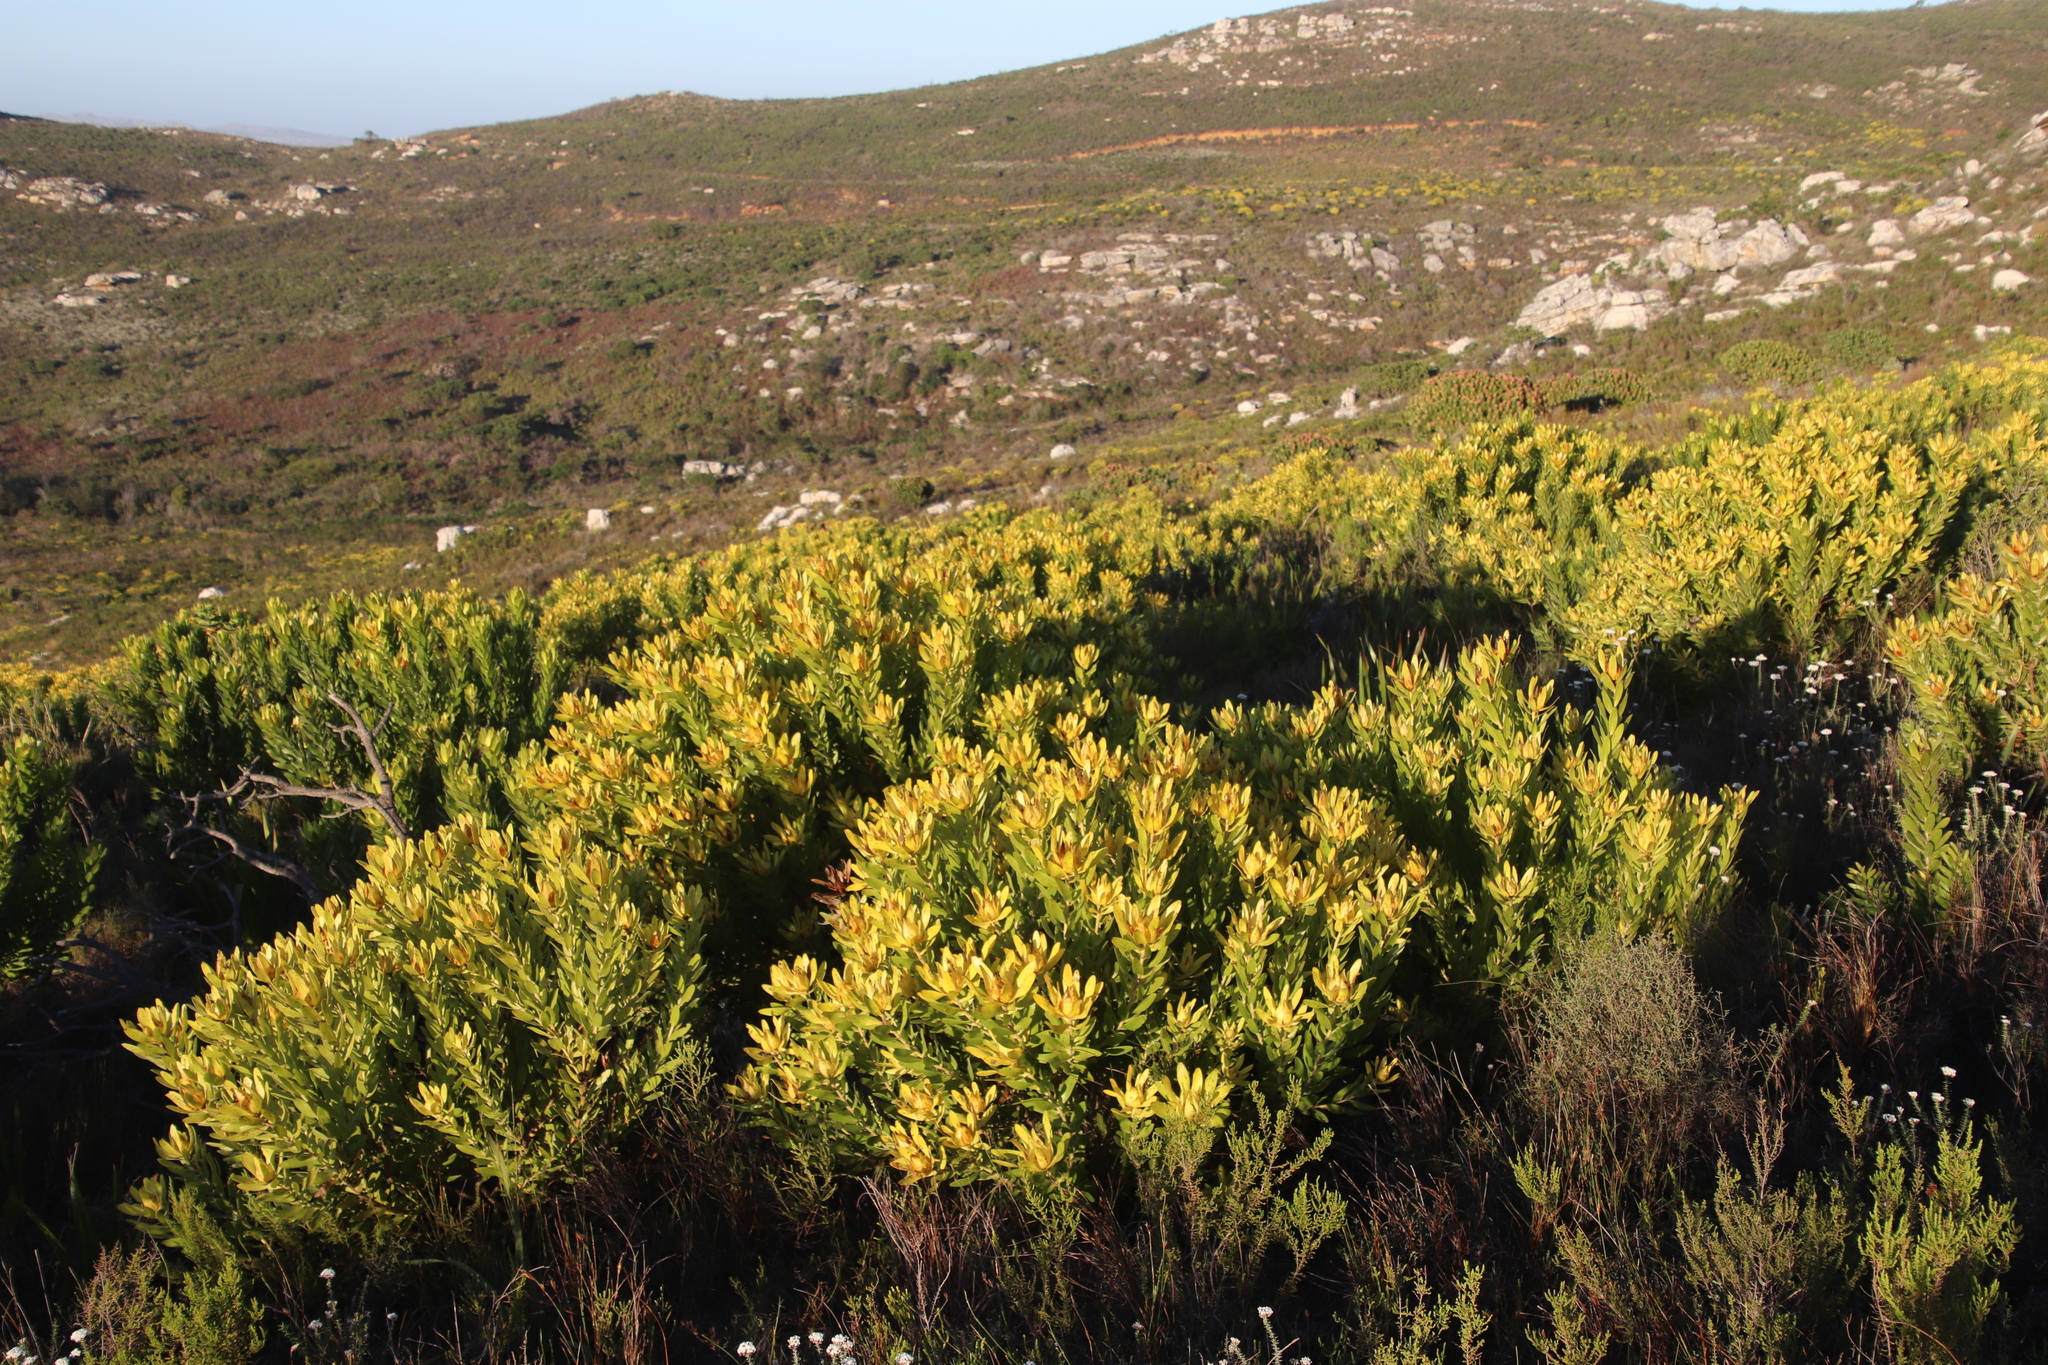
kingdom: Plantae
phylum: Tracheophyta
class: Magnoliopsida
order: Proteales
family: Proteaceae
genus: Leucadendron
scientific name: Leucadendron laureolum
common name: Golden sunshinebush
